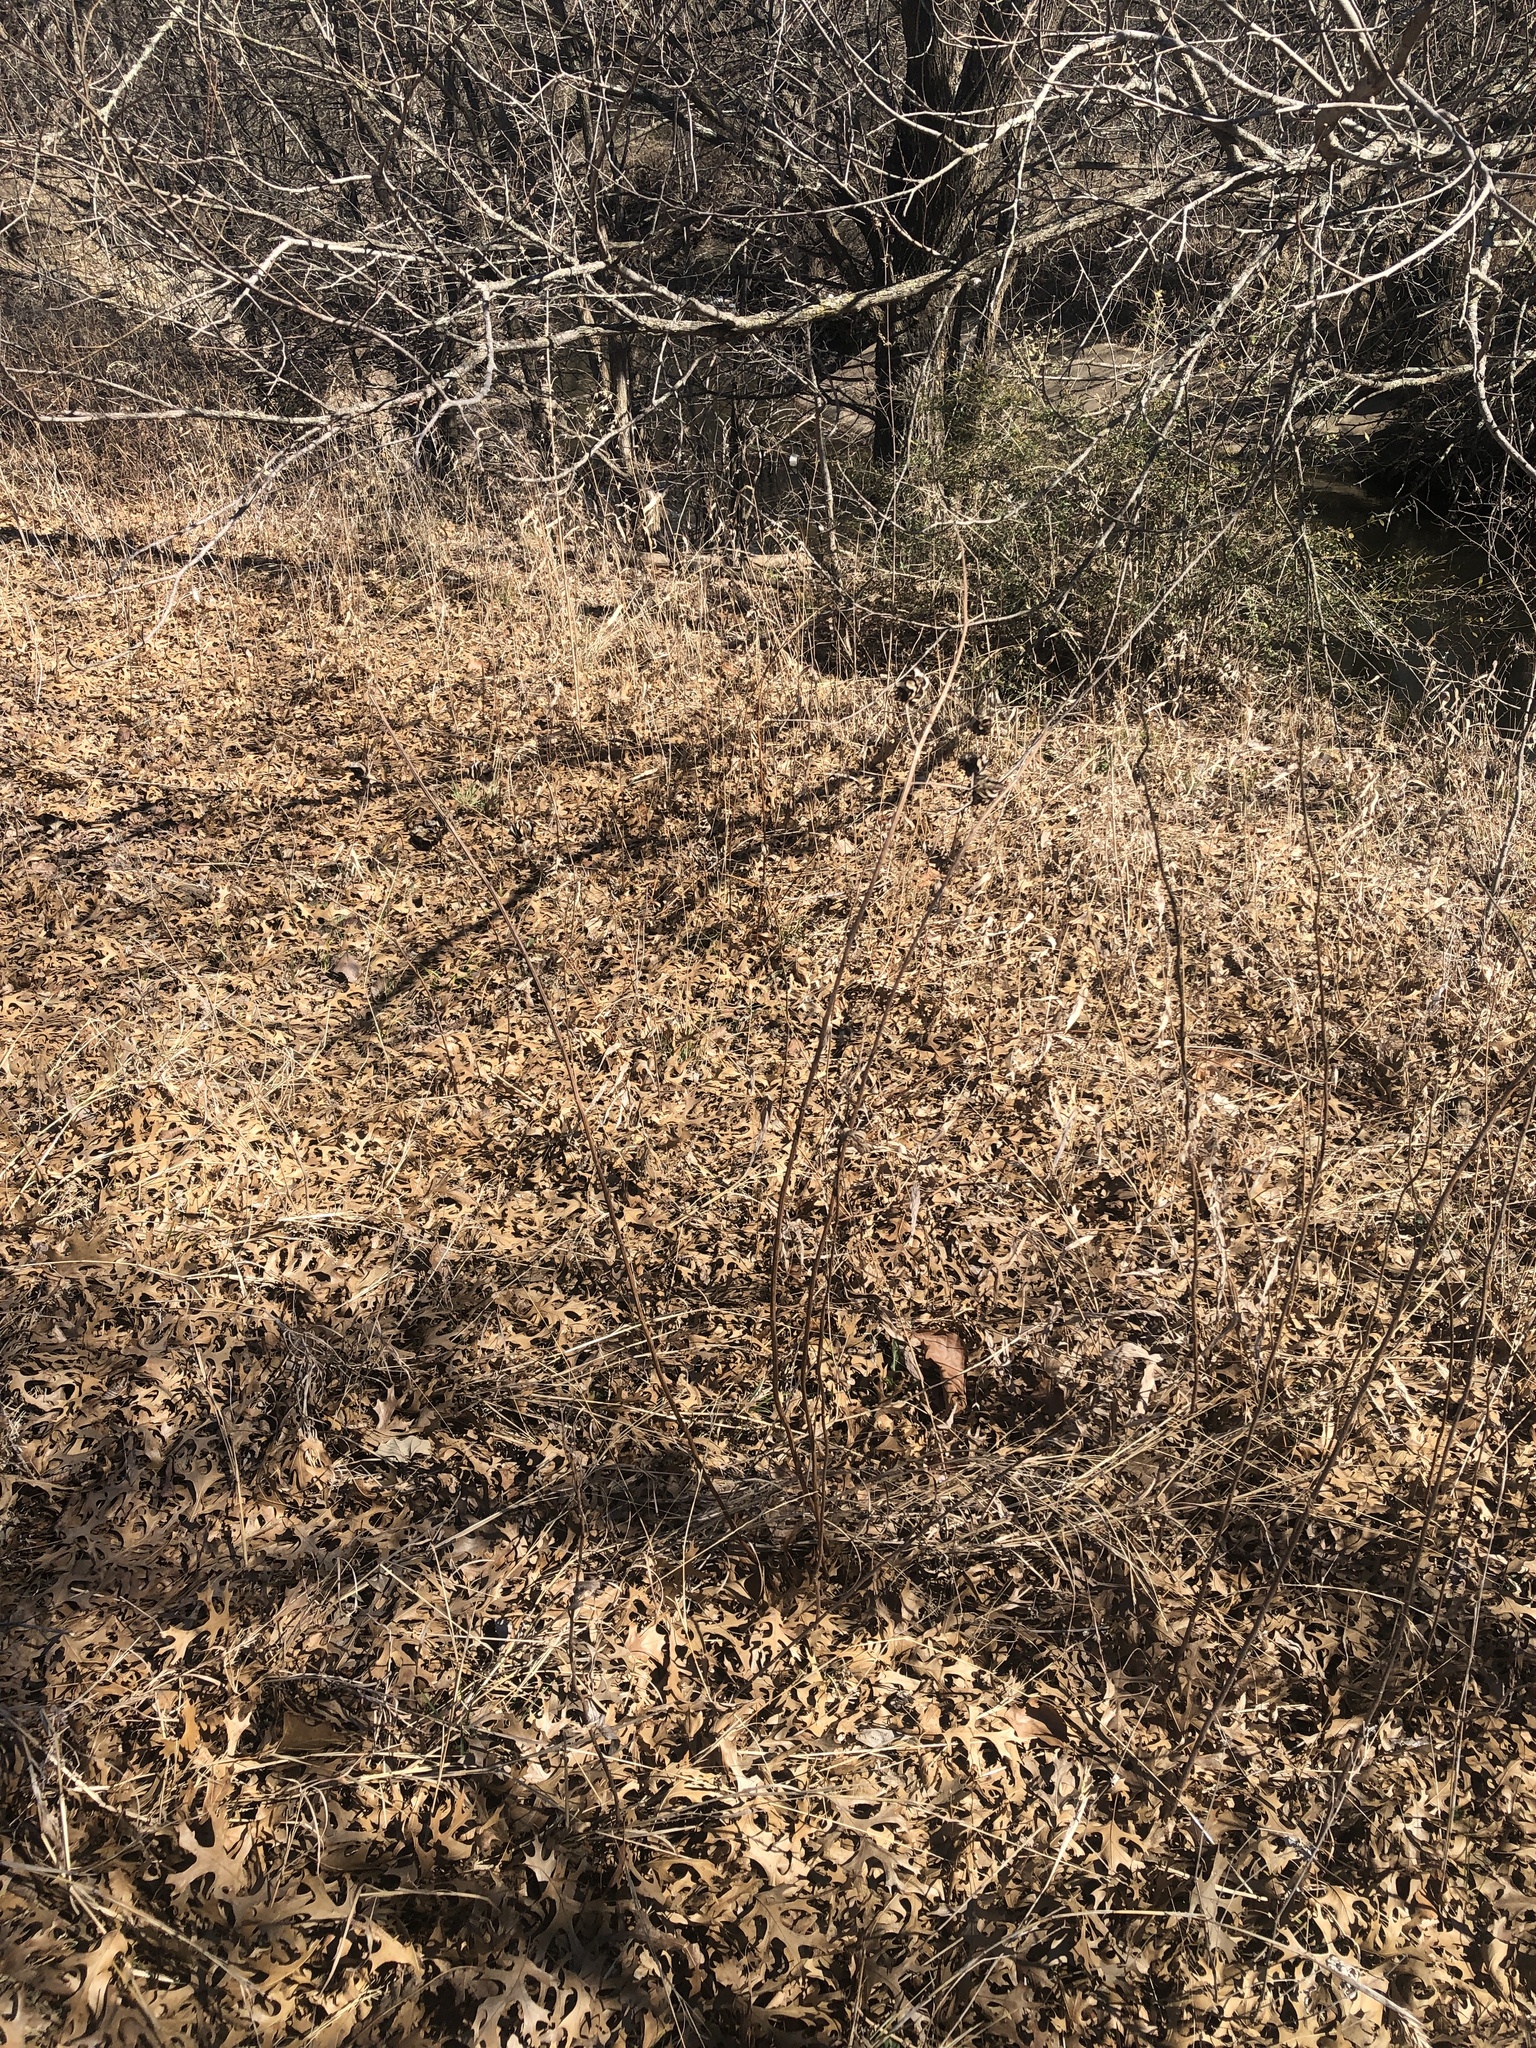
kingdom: Plantae
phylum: Tracheophyta
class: Magnoliopsida
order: Fabales
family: Fabaceae
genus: Desmanthus
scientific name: Desmanthus illinoensis
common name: Illinois bundle-flower
